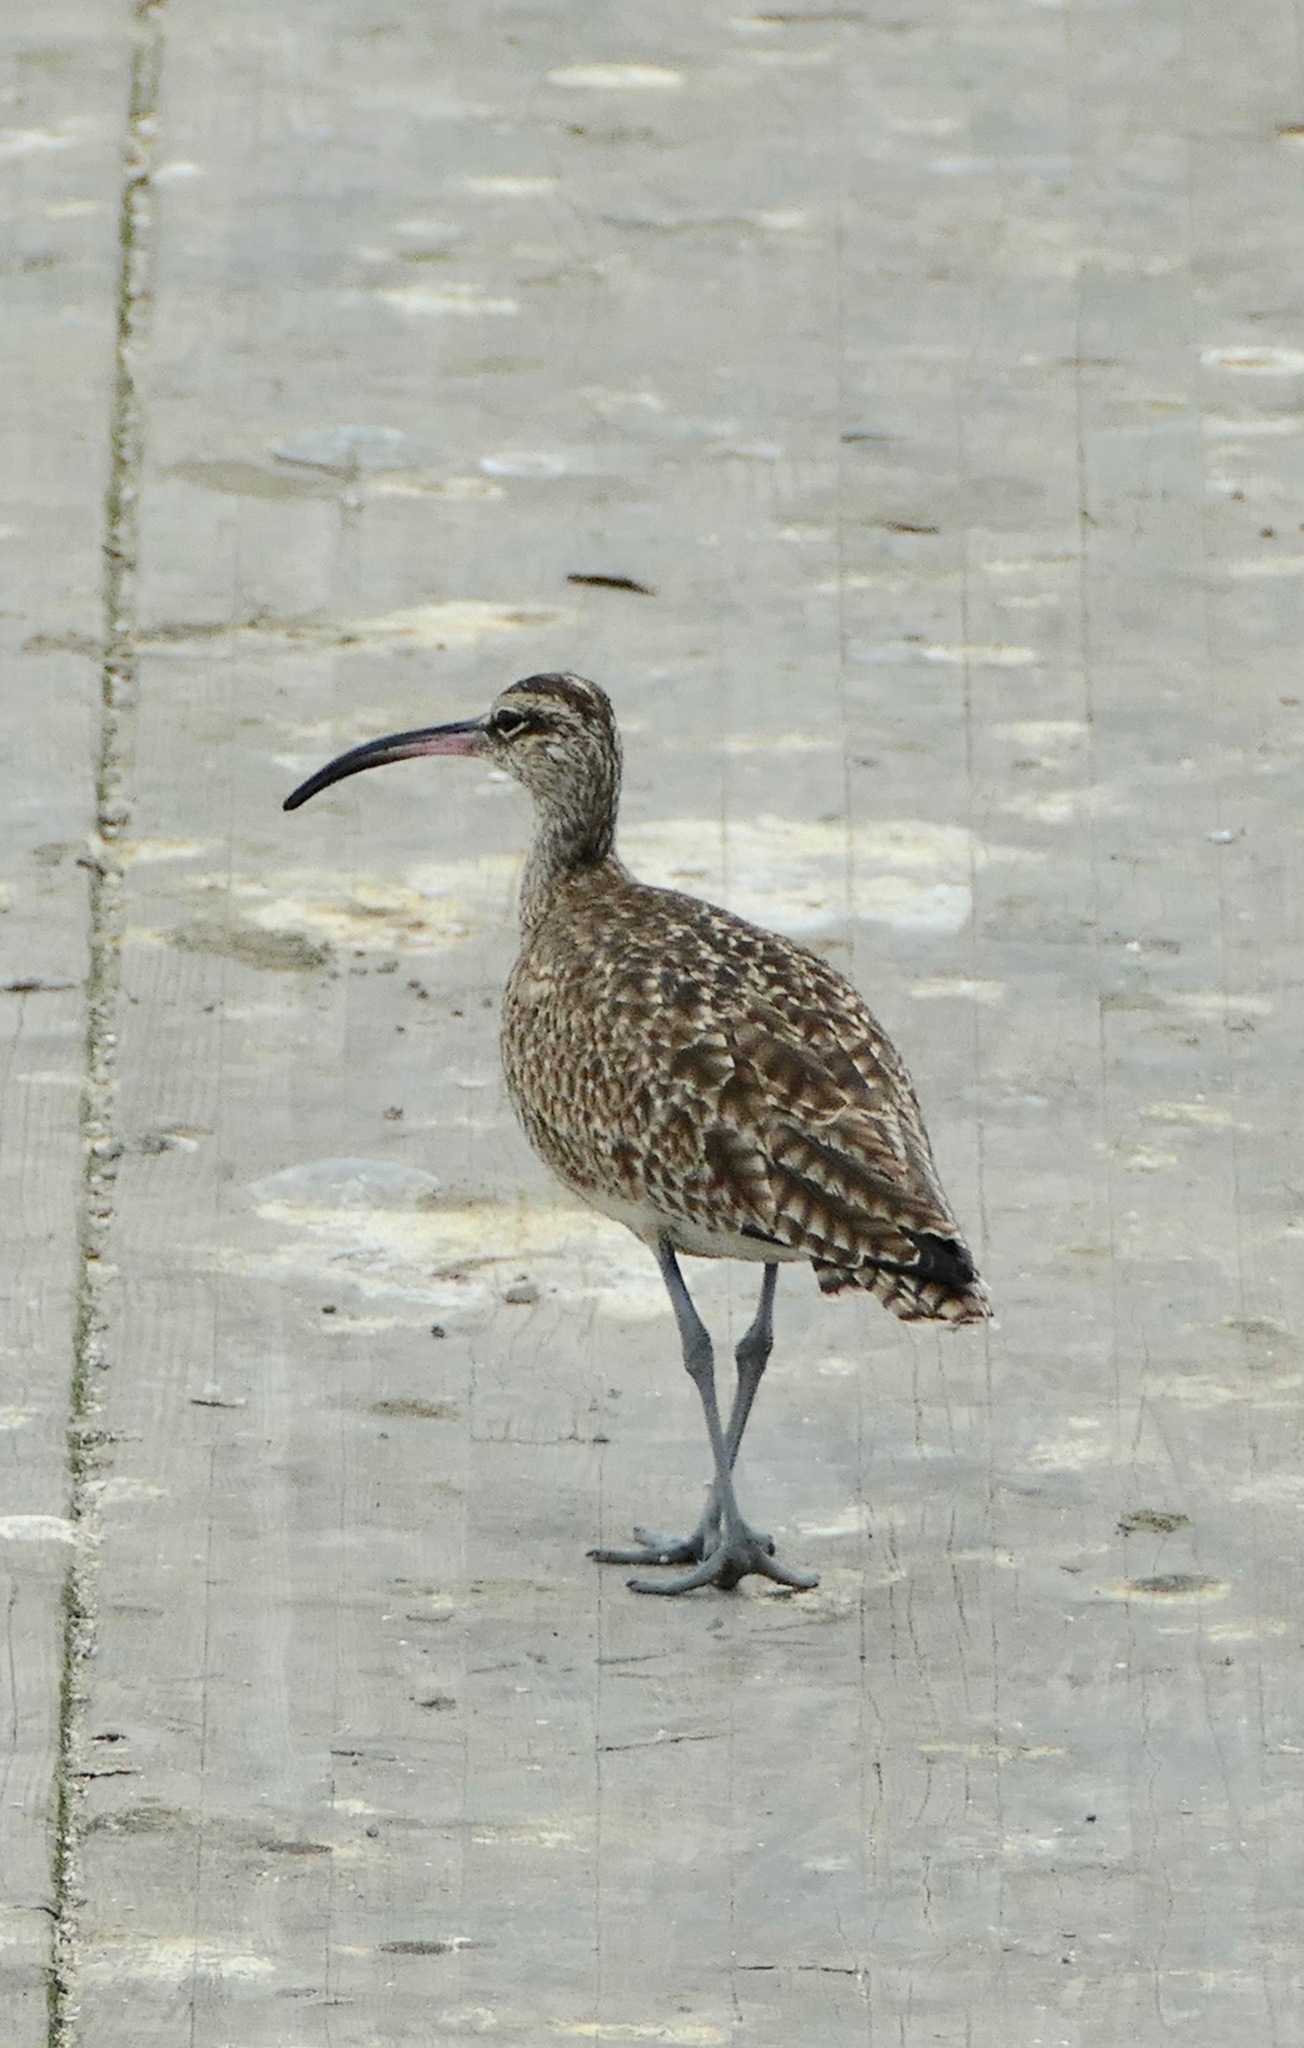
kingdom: Animalia
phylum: Chordata
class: Aves
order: Charadriiformes
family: Scolopacidae
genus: Numenius
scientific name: Numenius phaeopus
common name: Whimbrel
